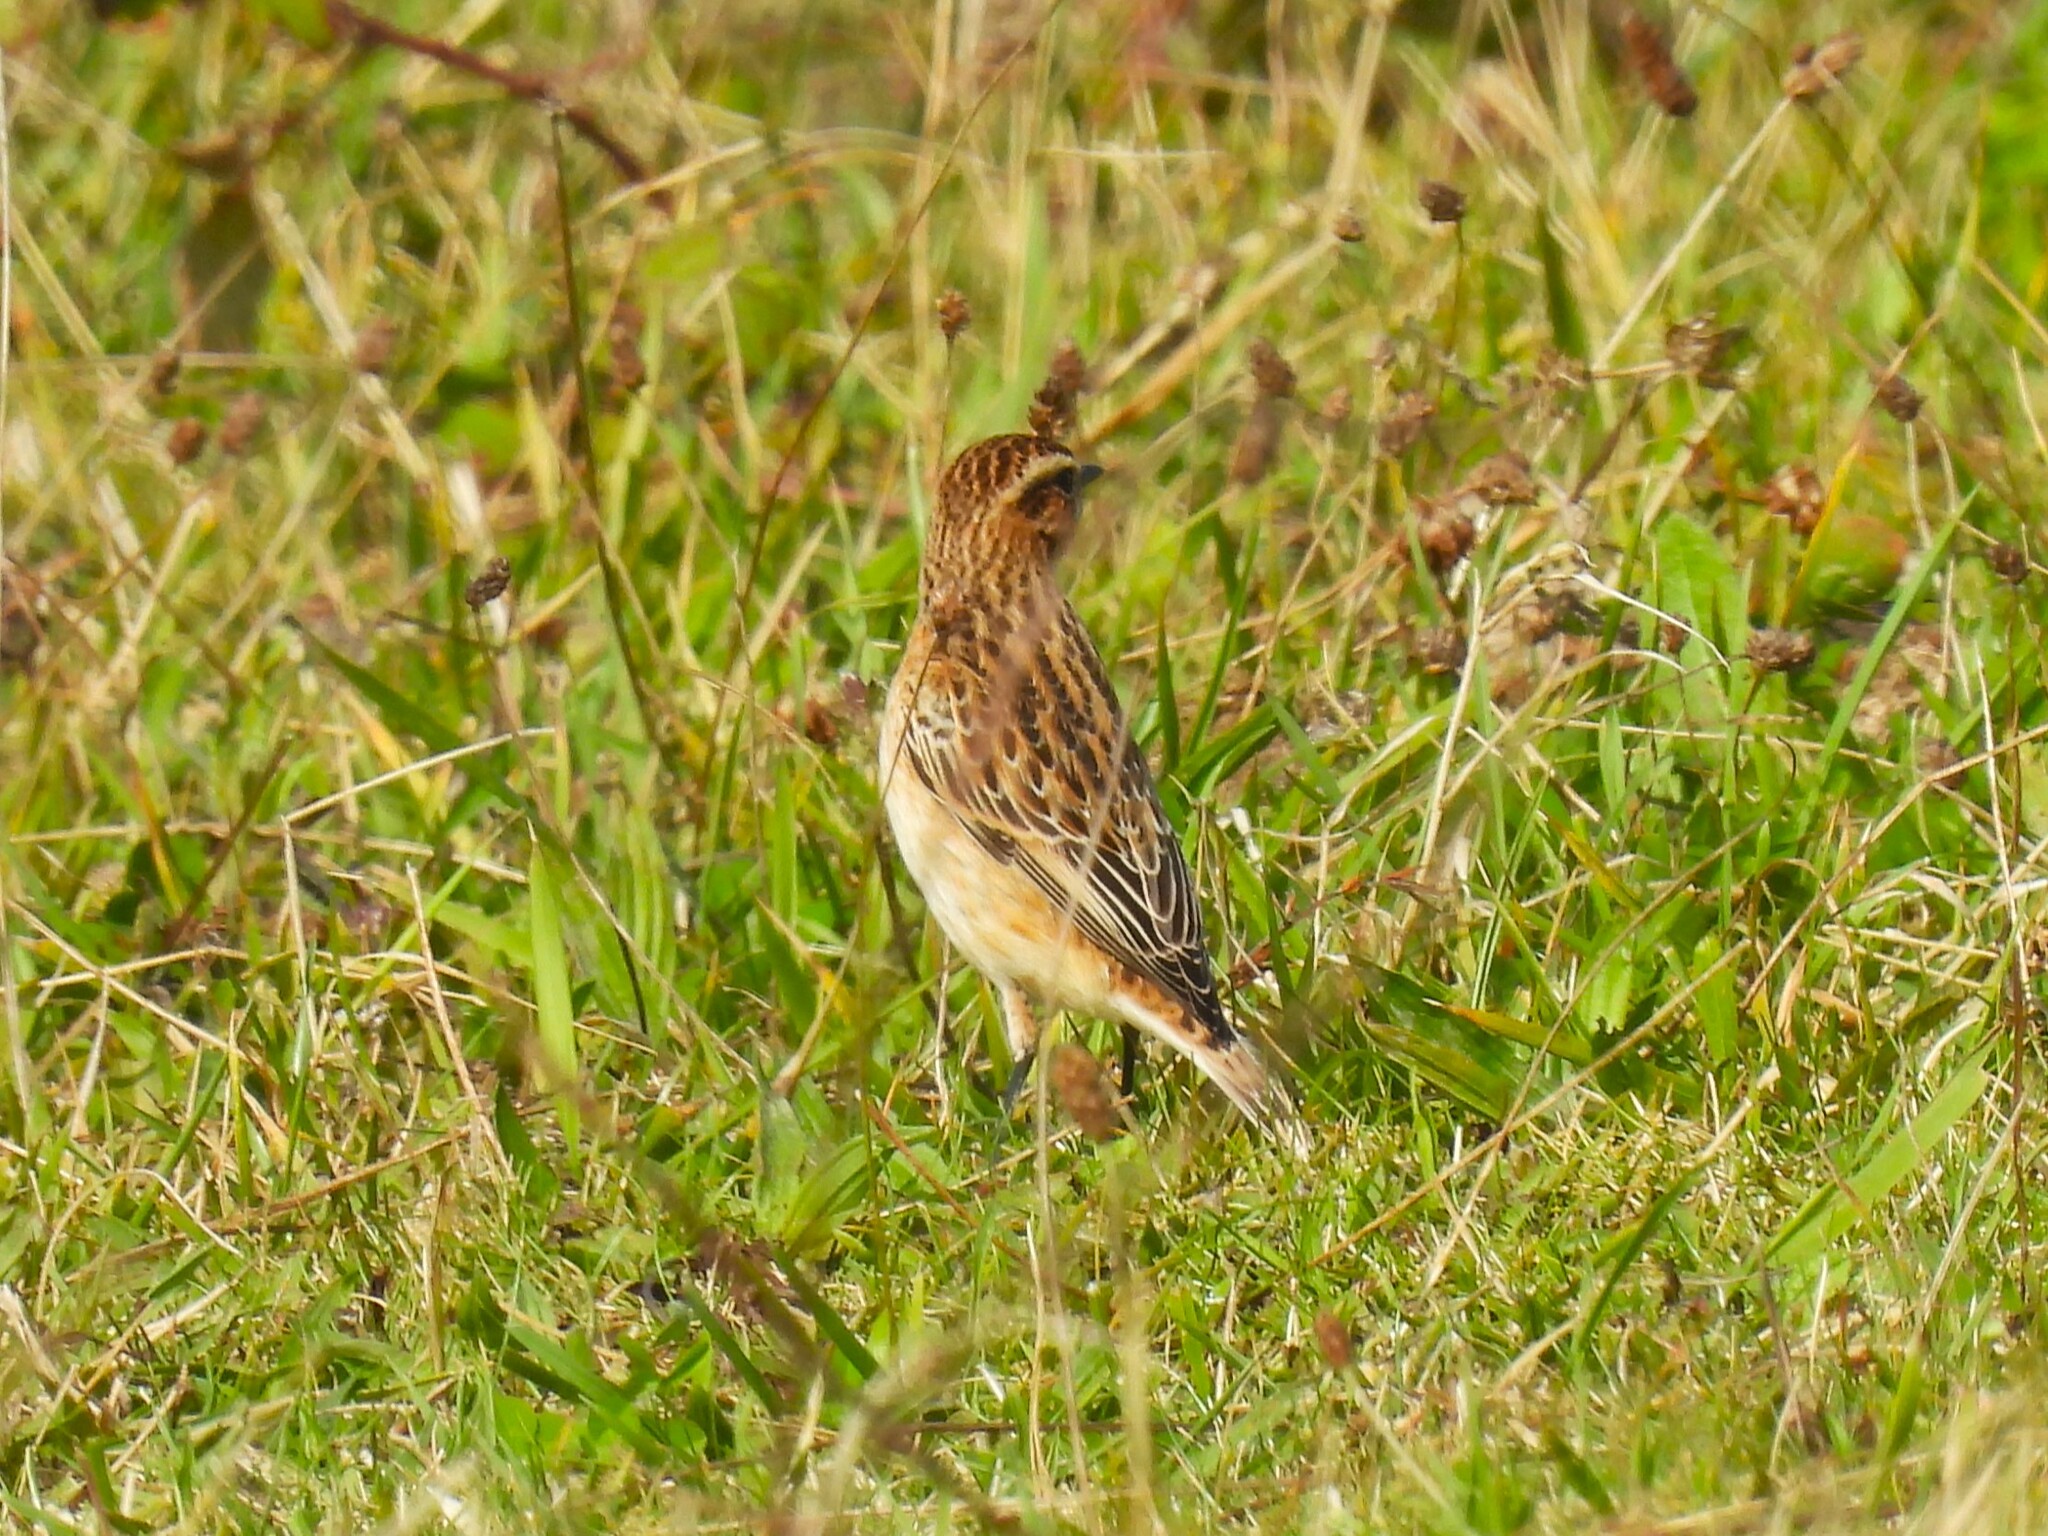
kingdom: Animalia
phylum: Chordata
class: Aves
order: Passeriformes
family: Muscicapidae
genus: Saxicola
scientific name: Saxicola rubetra
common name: Whinchat
